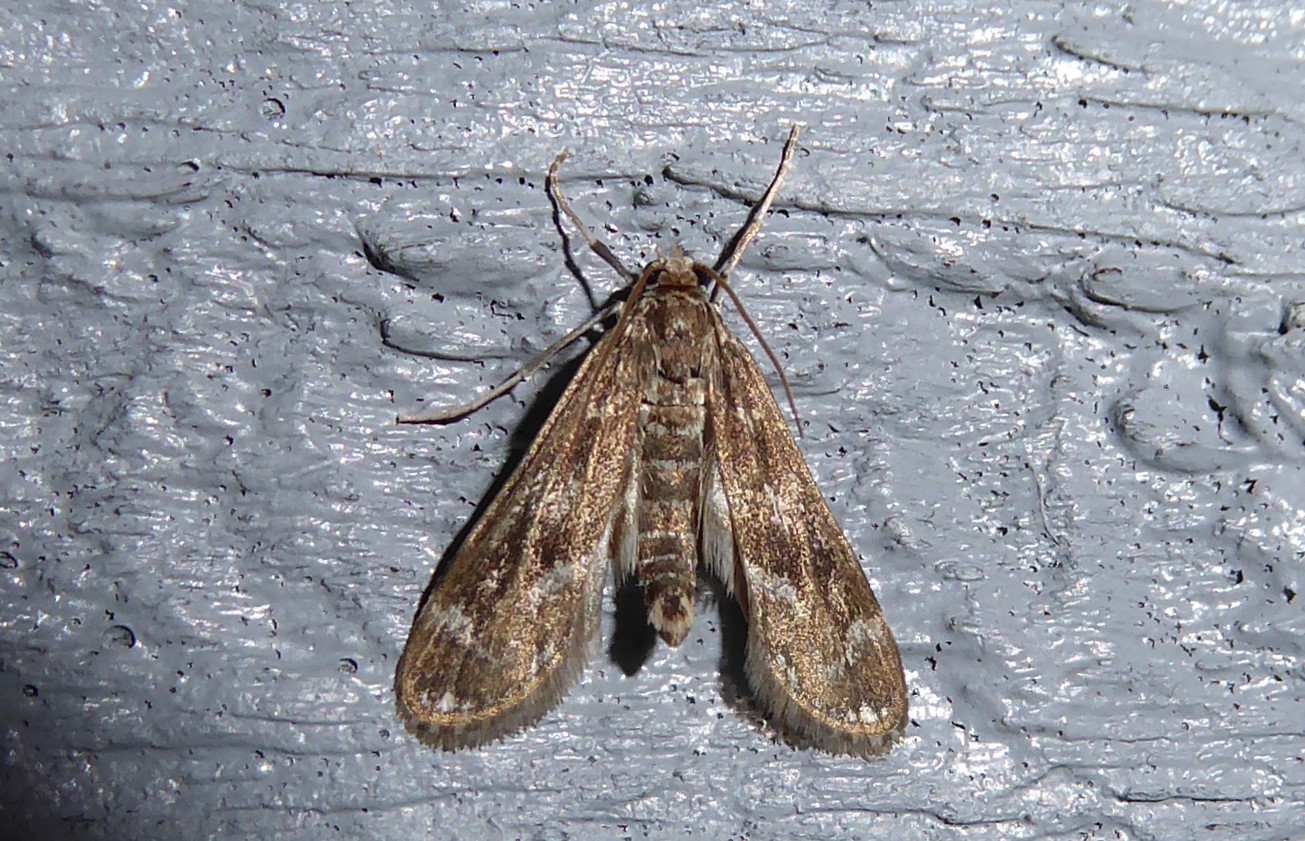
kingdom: Animalia
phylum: Arthropoda
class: Insecta
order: Lepidoptera
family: Crambidae
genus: Hygraula
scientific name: Hygraula nitens
